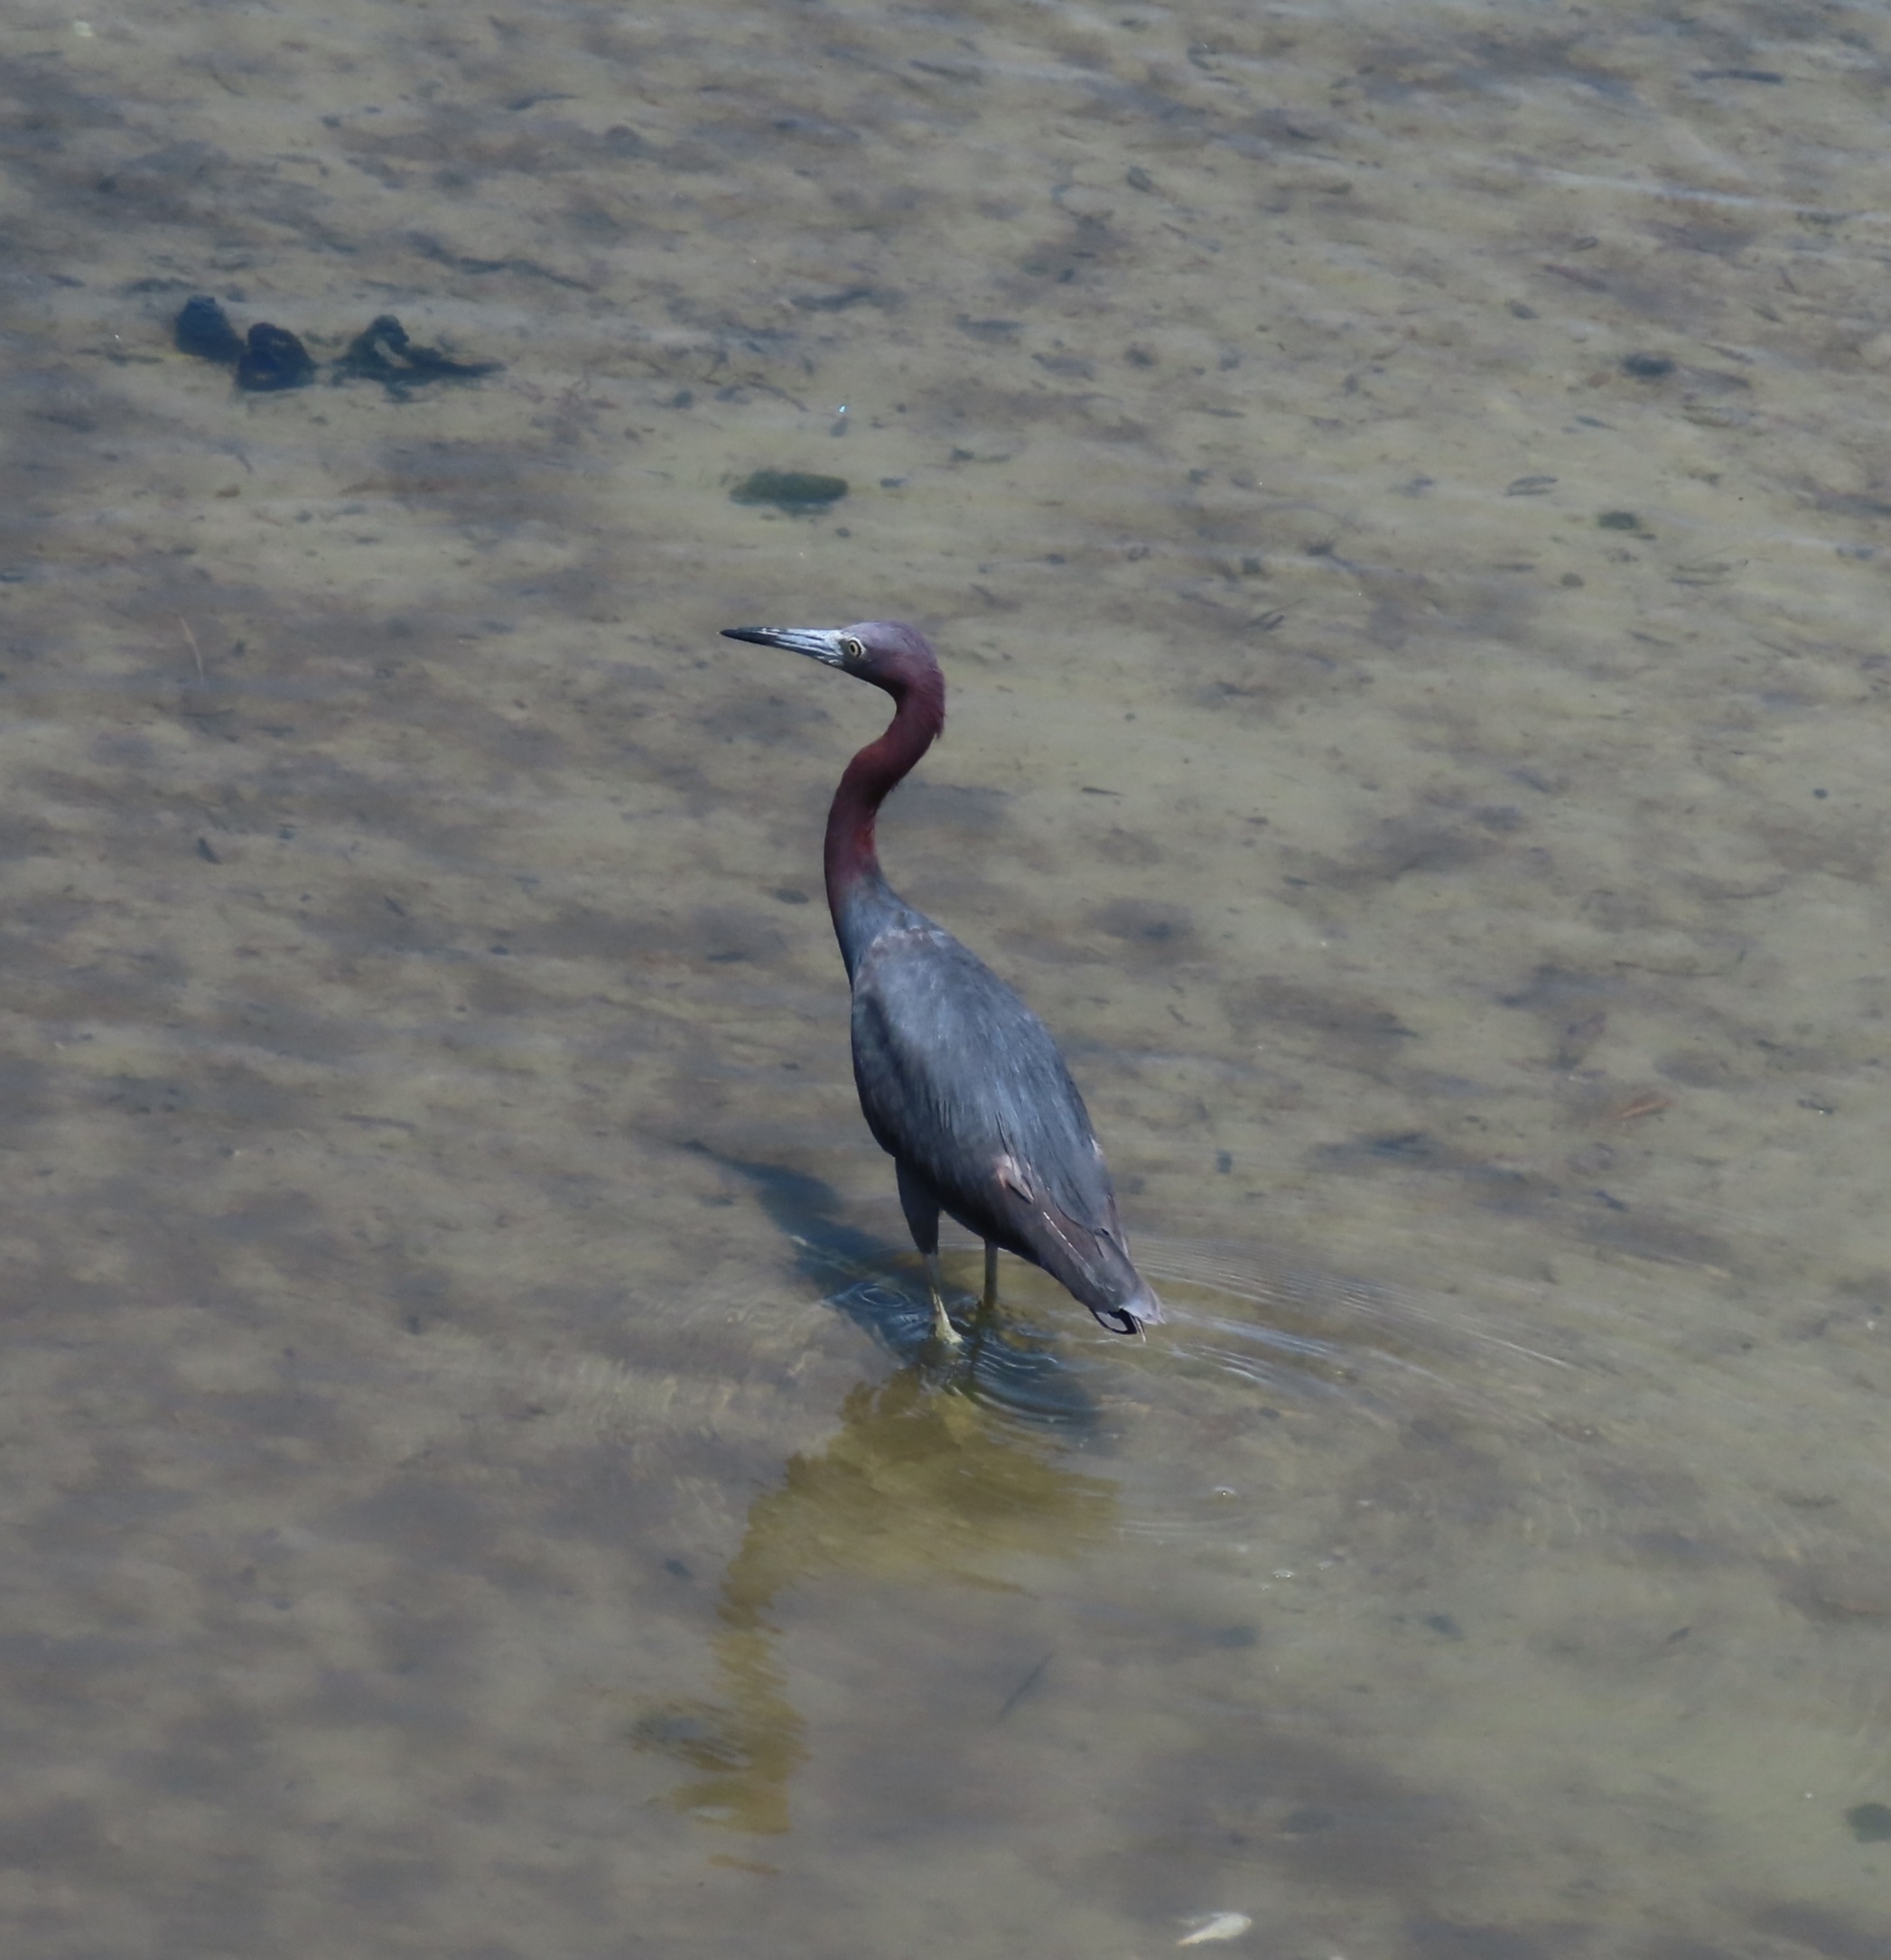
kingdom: Animalia
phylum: Chordata
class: Aves
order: Pelecaniformes
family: Ardeidae
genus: Egretta
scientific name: Egretta caerulea
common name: Little blue heron
